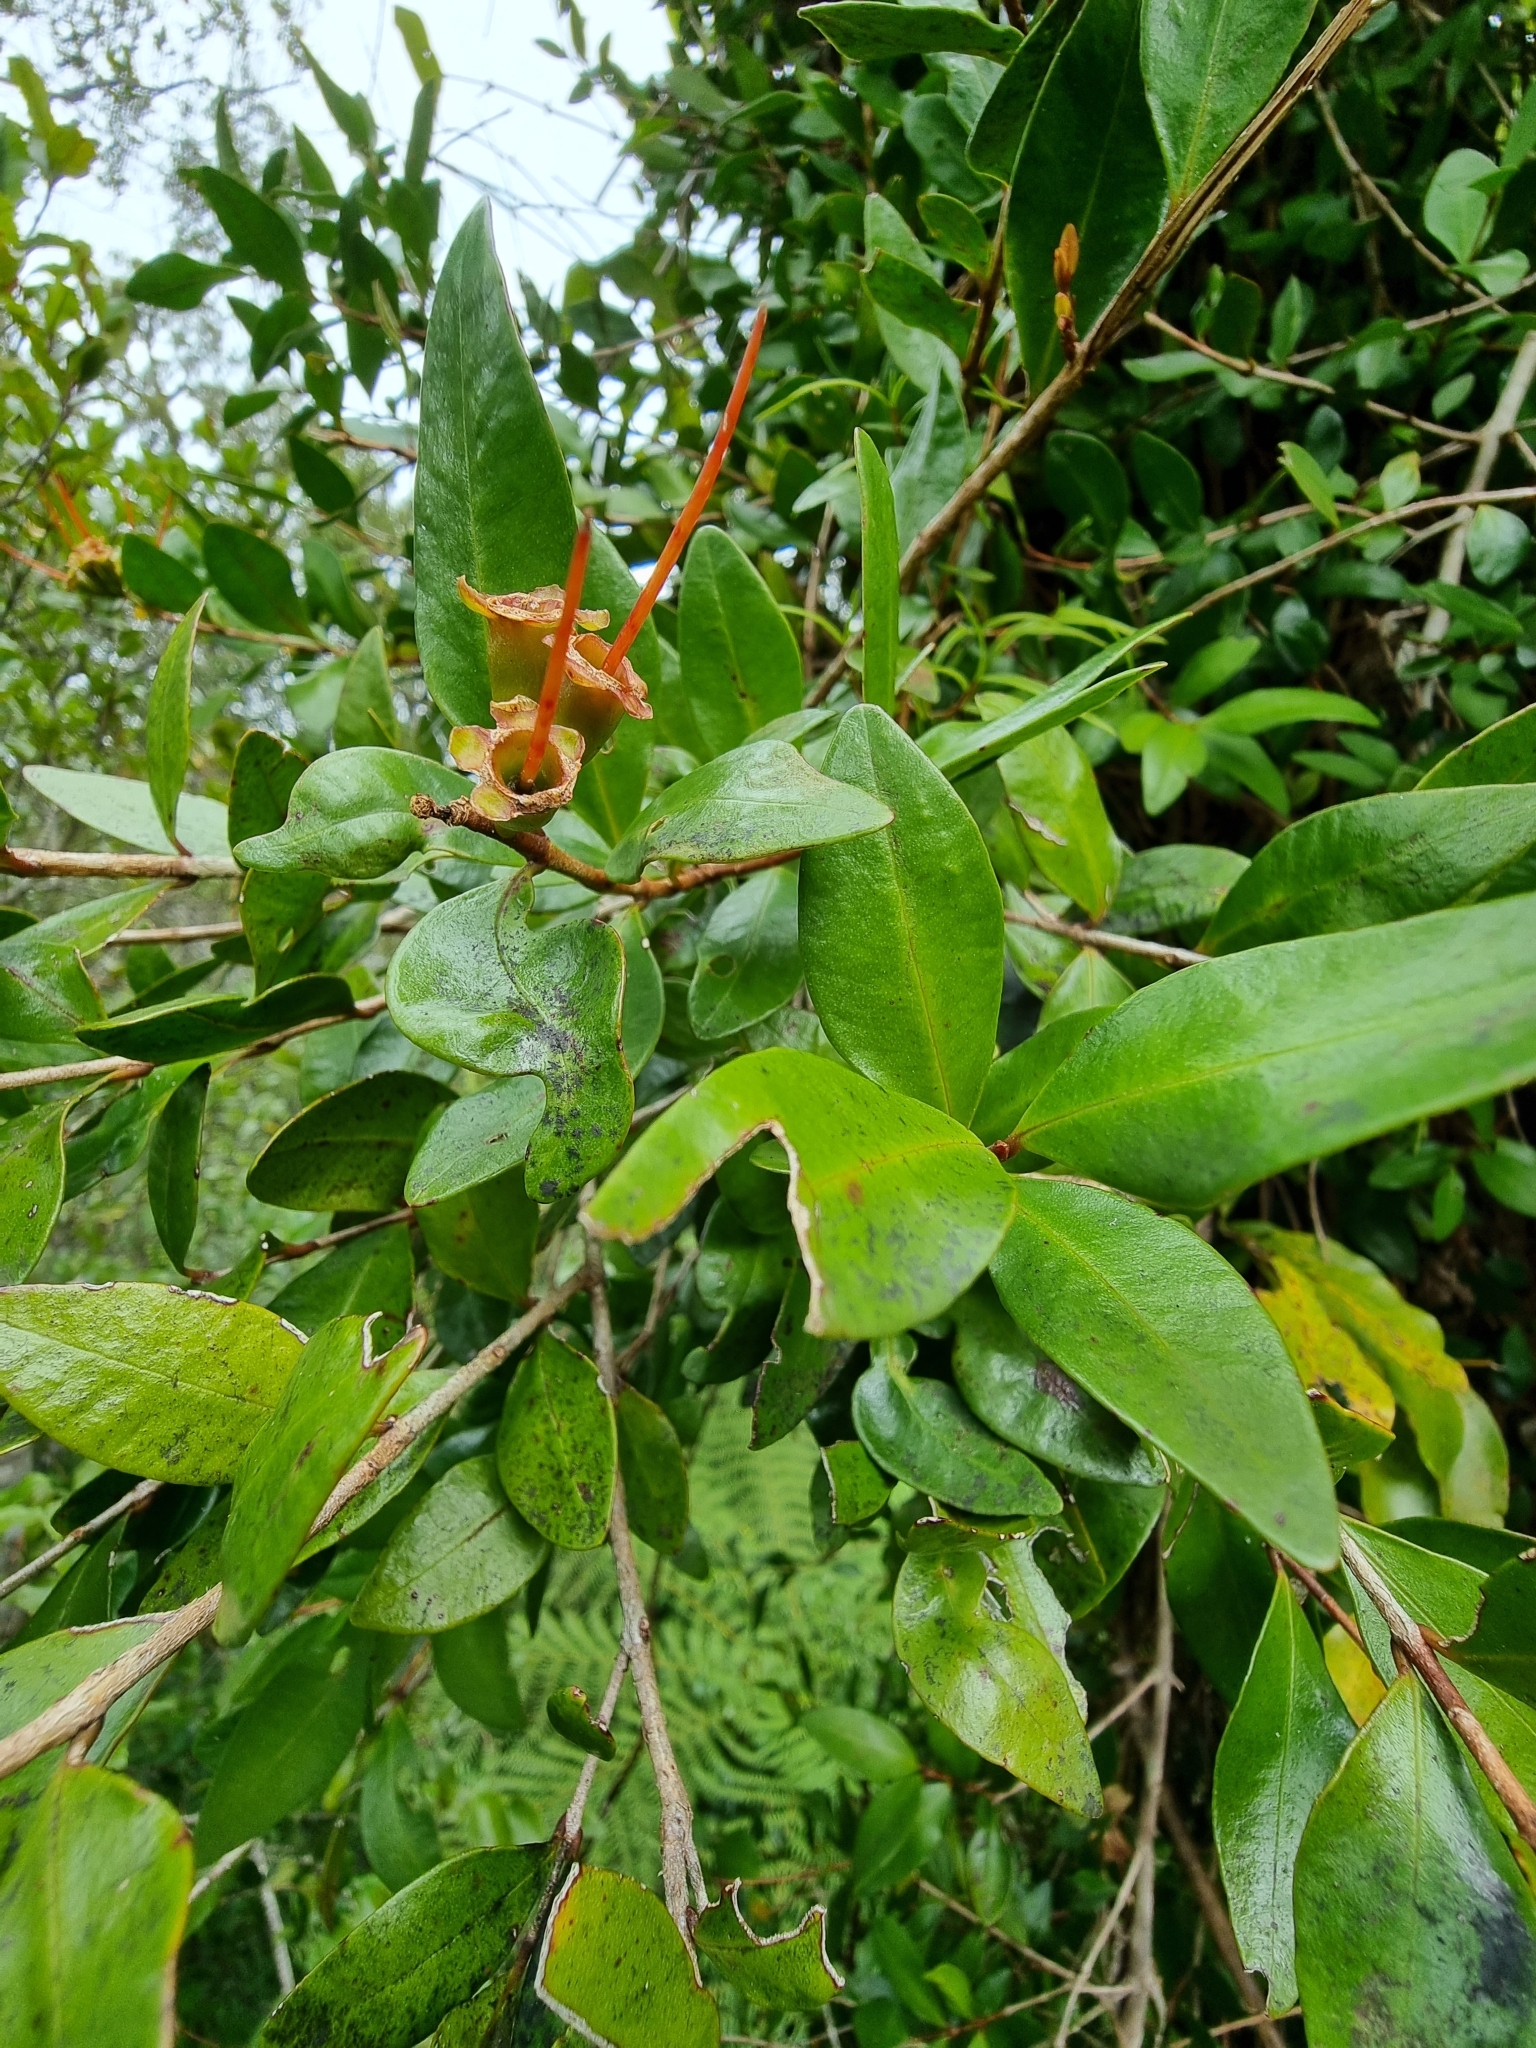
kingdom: Plantae
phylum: Tracheophyta
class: Magnoliopsida
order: Myrtales
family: Myrtaceae
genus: Metrosideros
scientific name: Metrosideros fulgens
